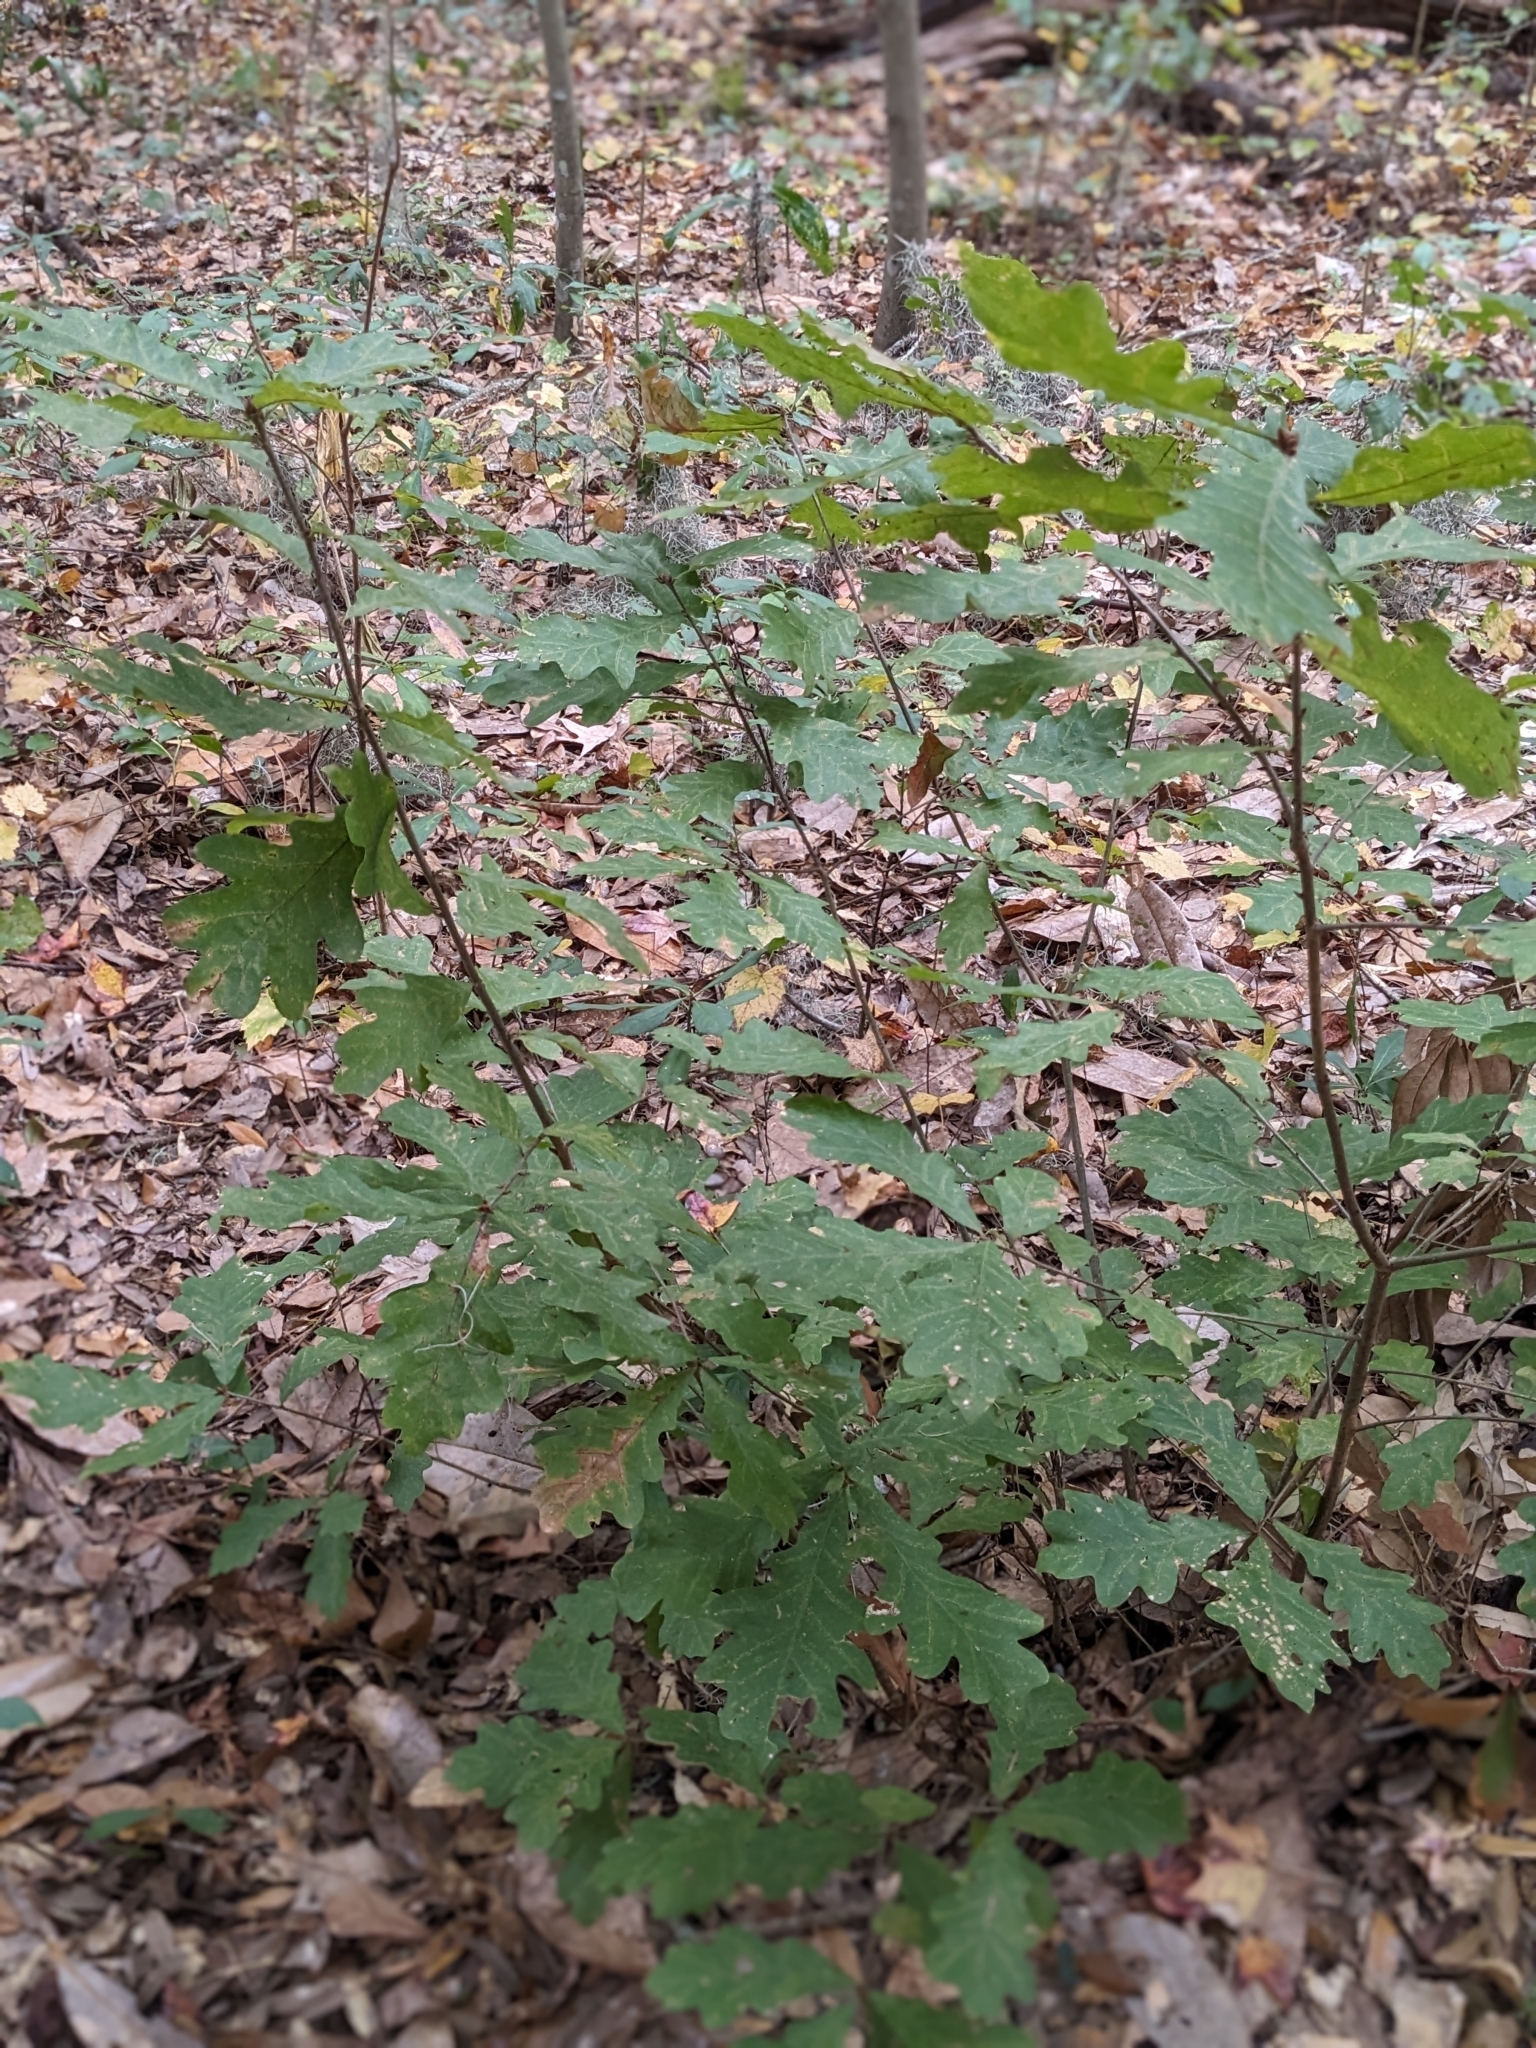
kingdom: Plantae
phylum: Tracheophyta
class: Magnoliopsida
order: Fagales
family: Fagaceae
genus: Quercus
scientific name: Quercus alba
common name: White oak
